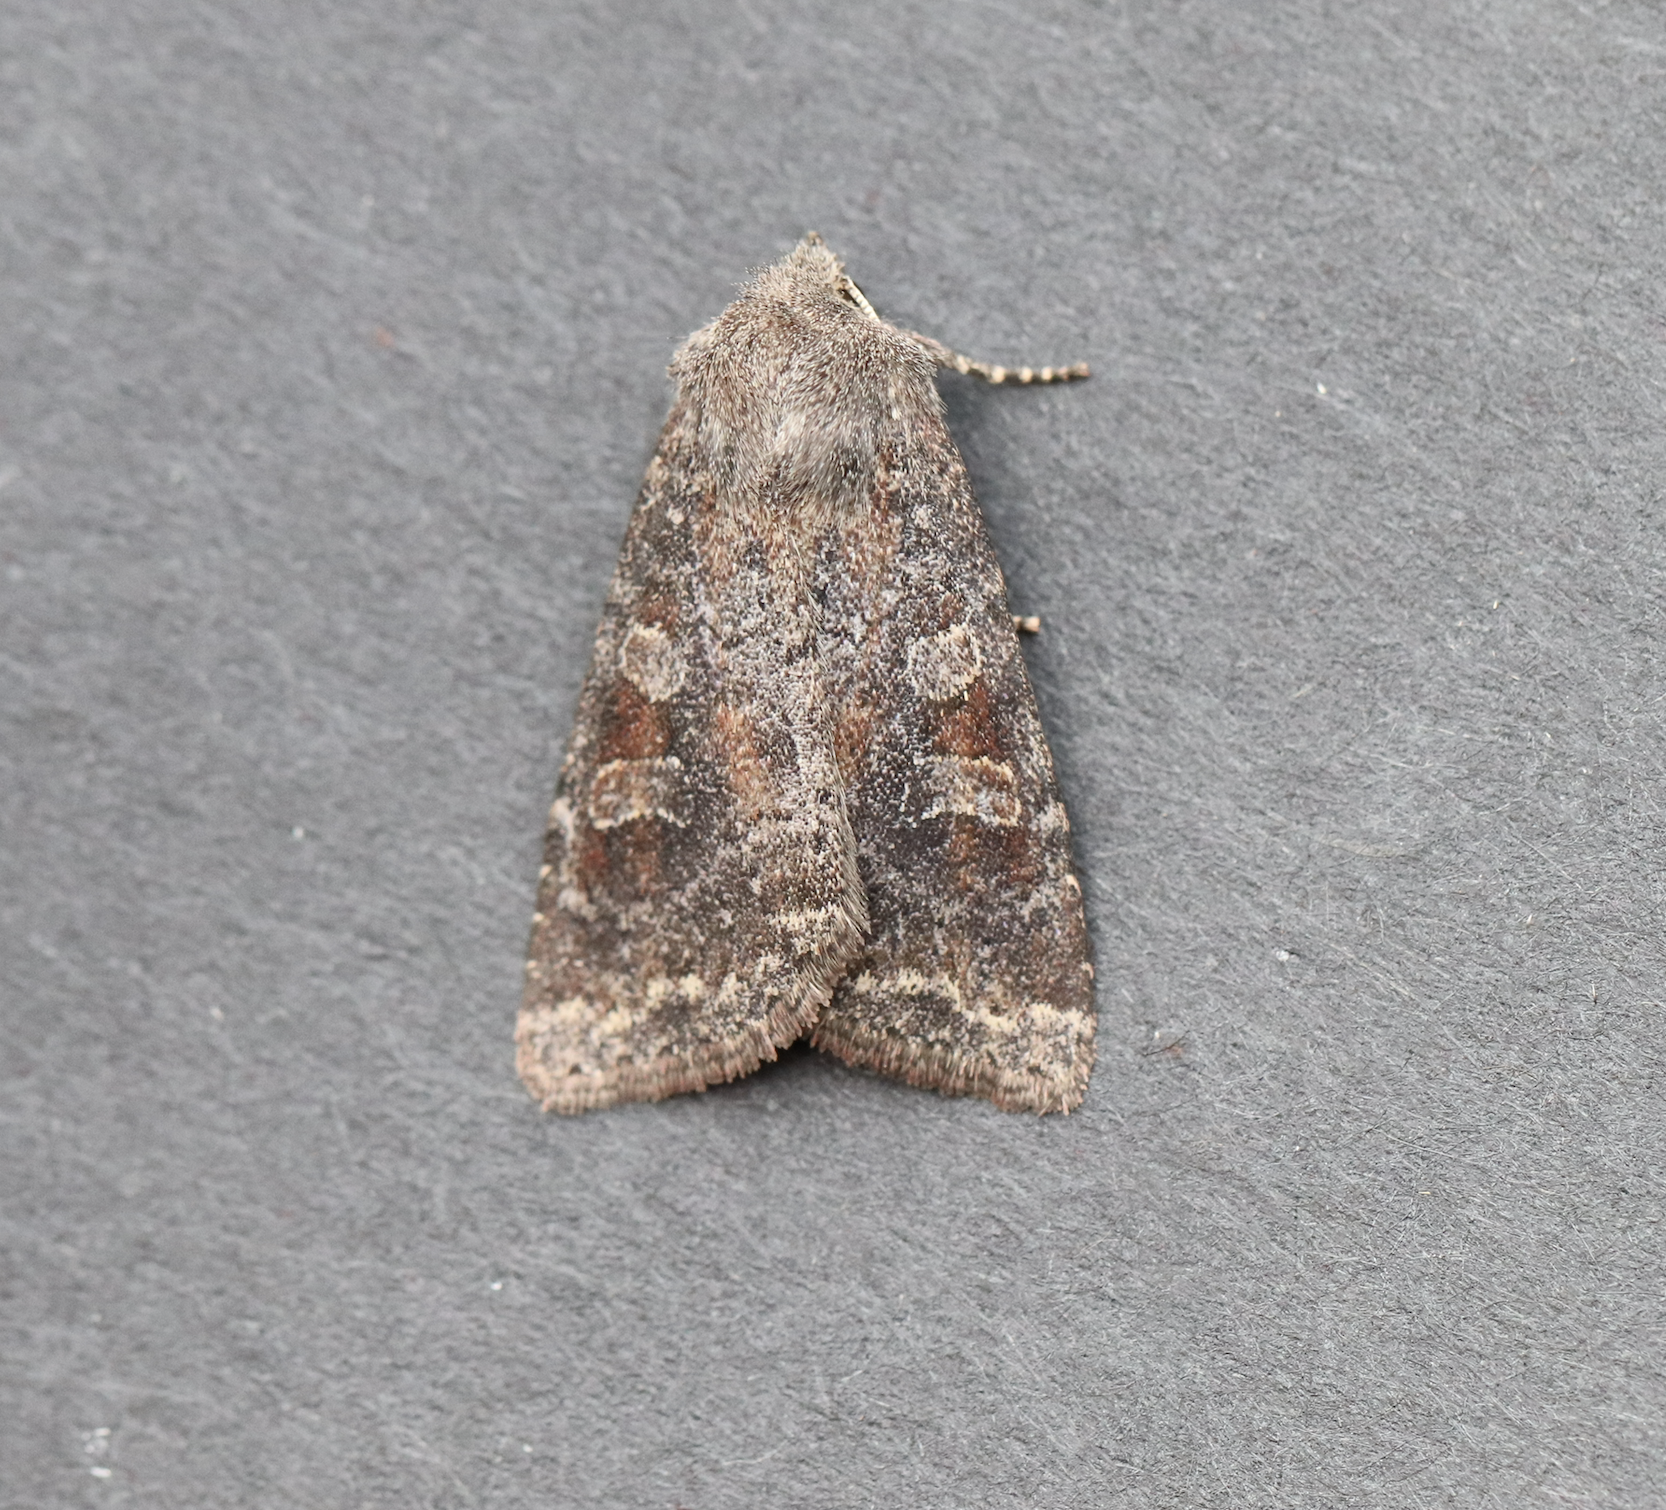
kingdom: Animalia
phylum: Arthropoda
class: Insecta
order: Lepidoptera
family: Noctuidae
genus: Parastichtis
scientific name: Parastichtis suspecta
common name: Suspected
